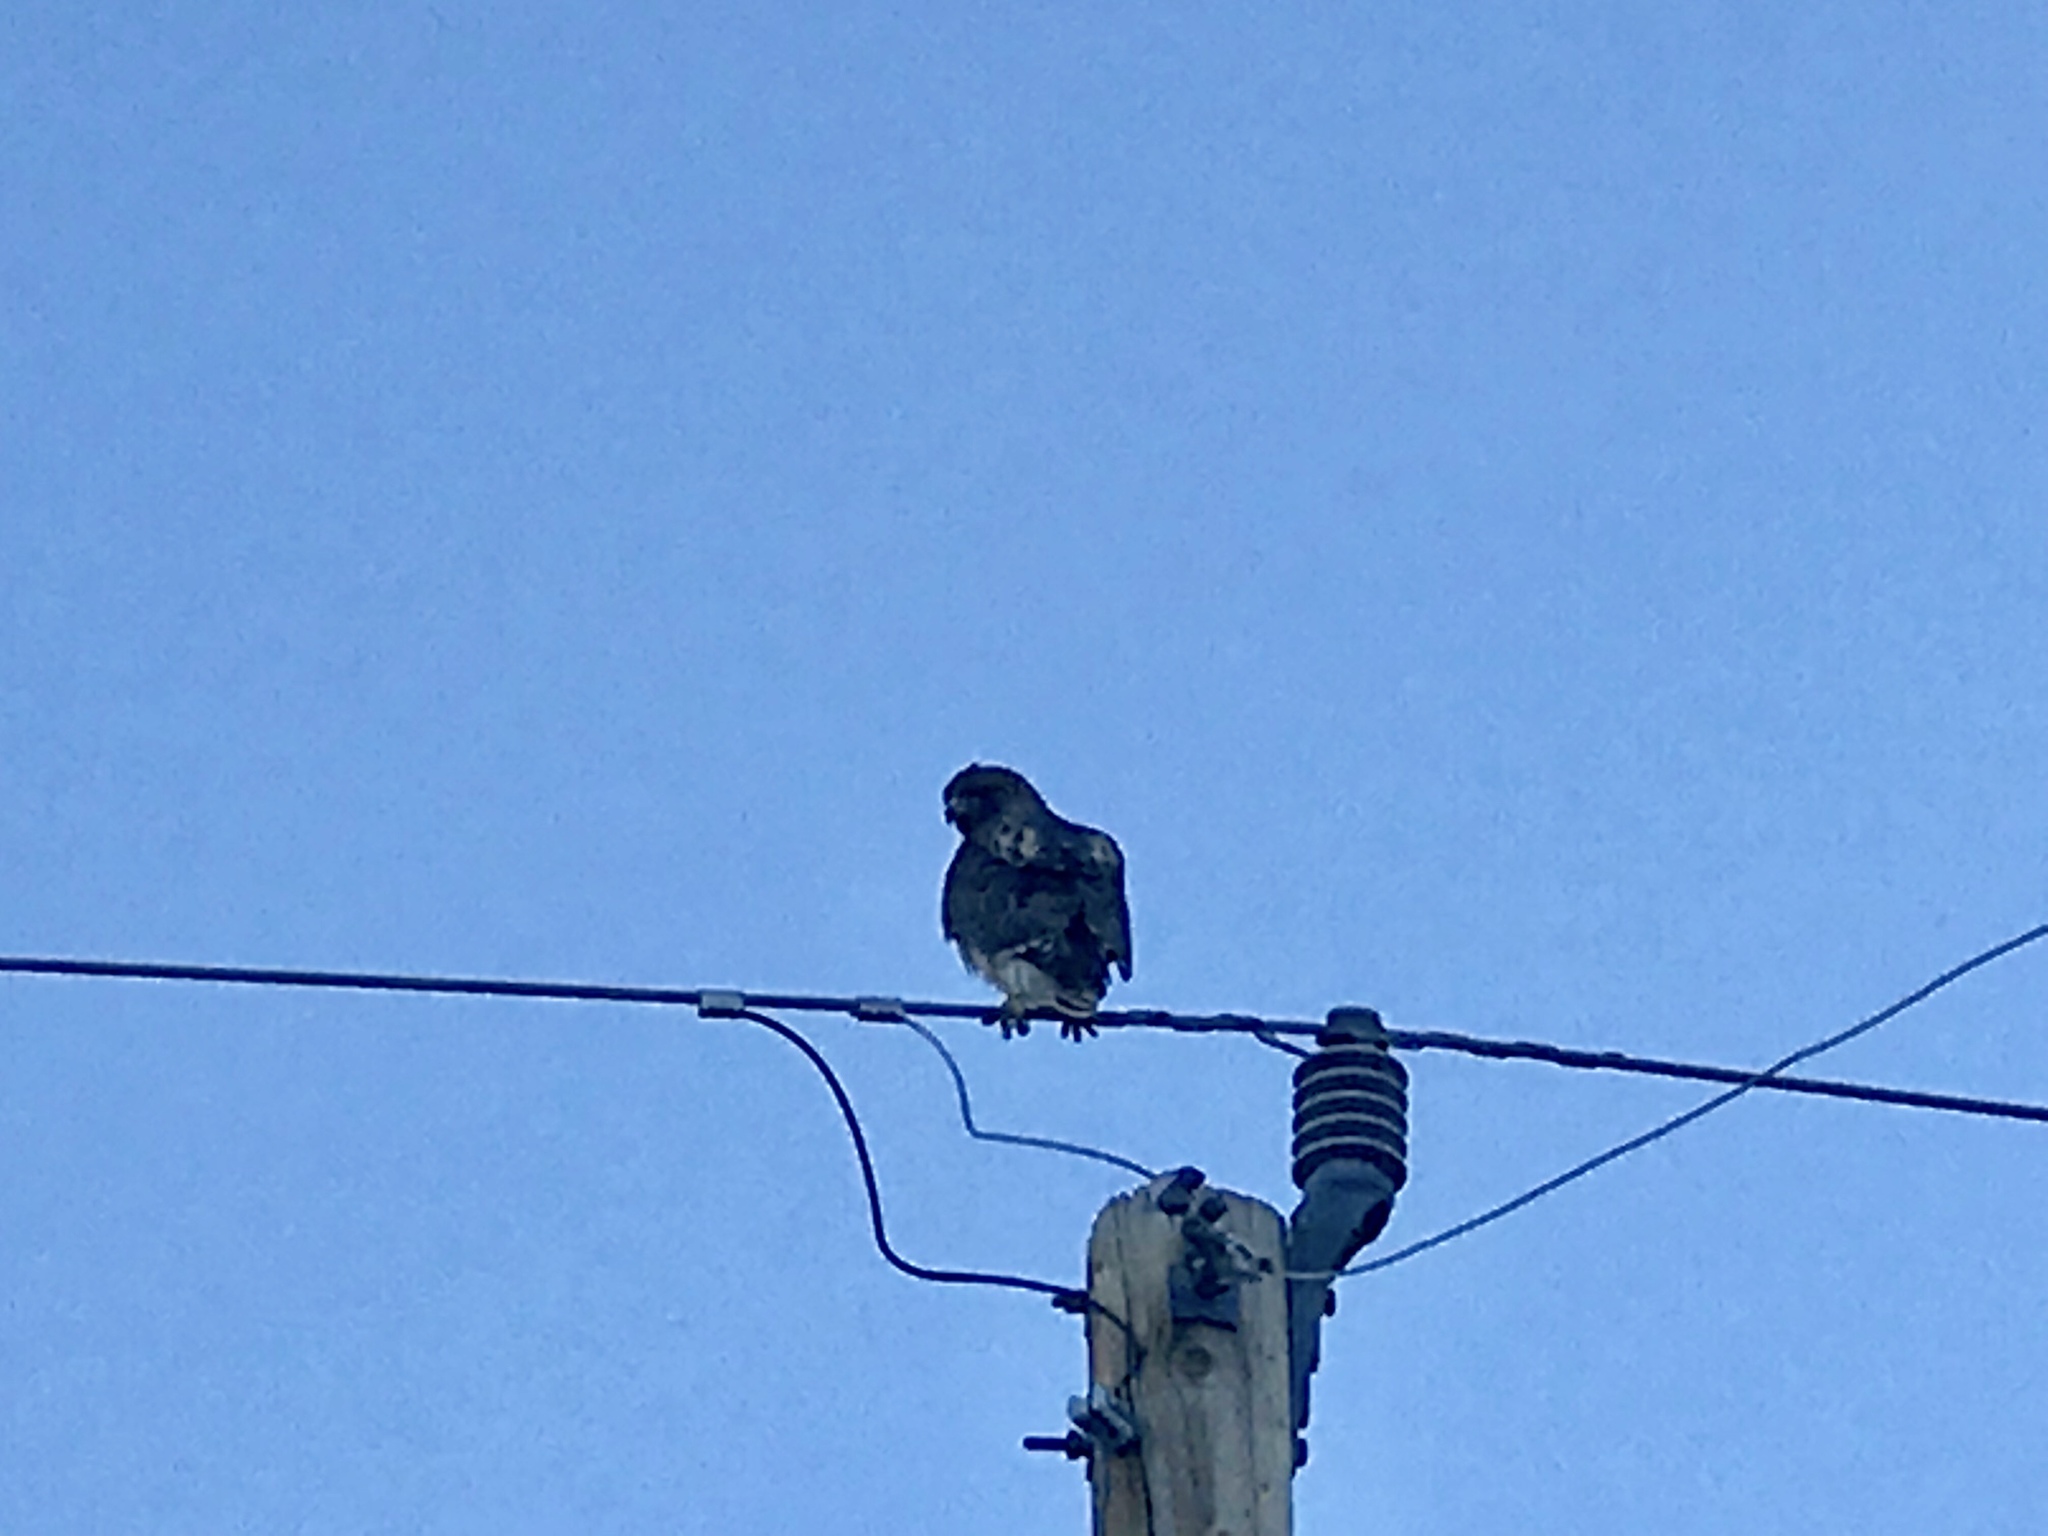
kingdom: Animalia
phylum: Chordata
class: Aves
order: Accipitriformes
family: Accipitridae
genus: Buteo
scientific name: Buteo jamaicensis
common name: Red-tailed hawk
